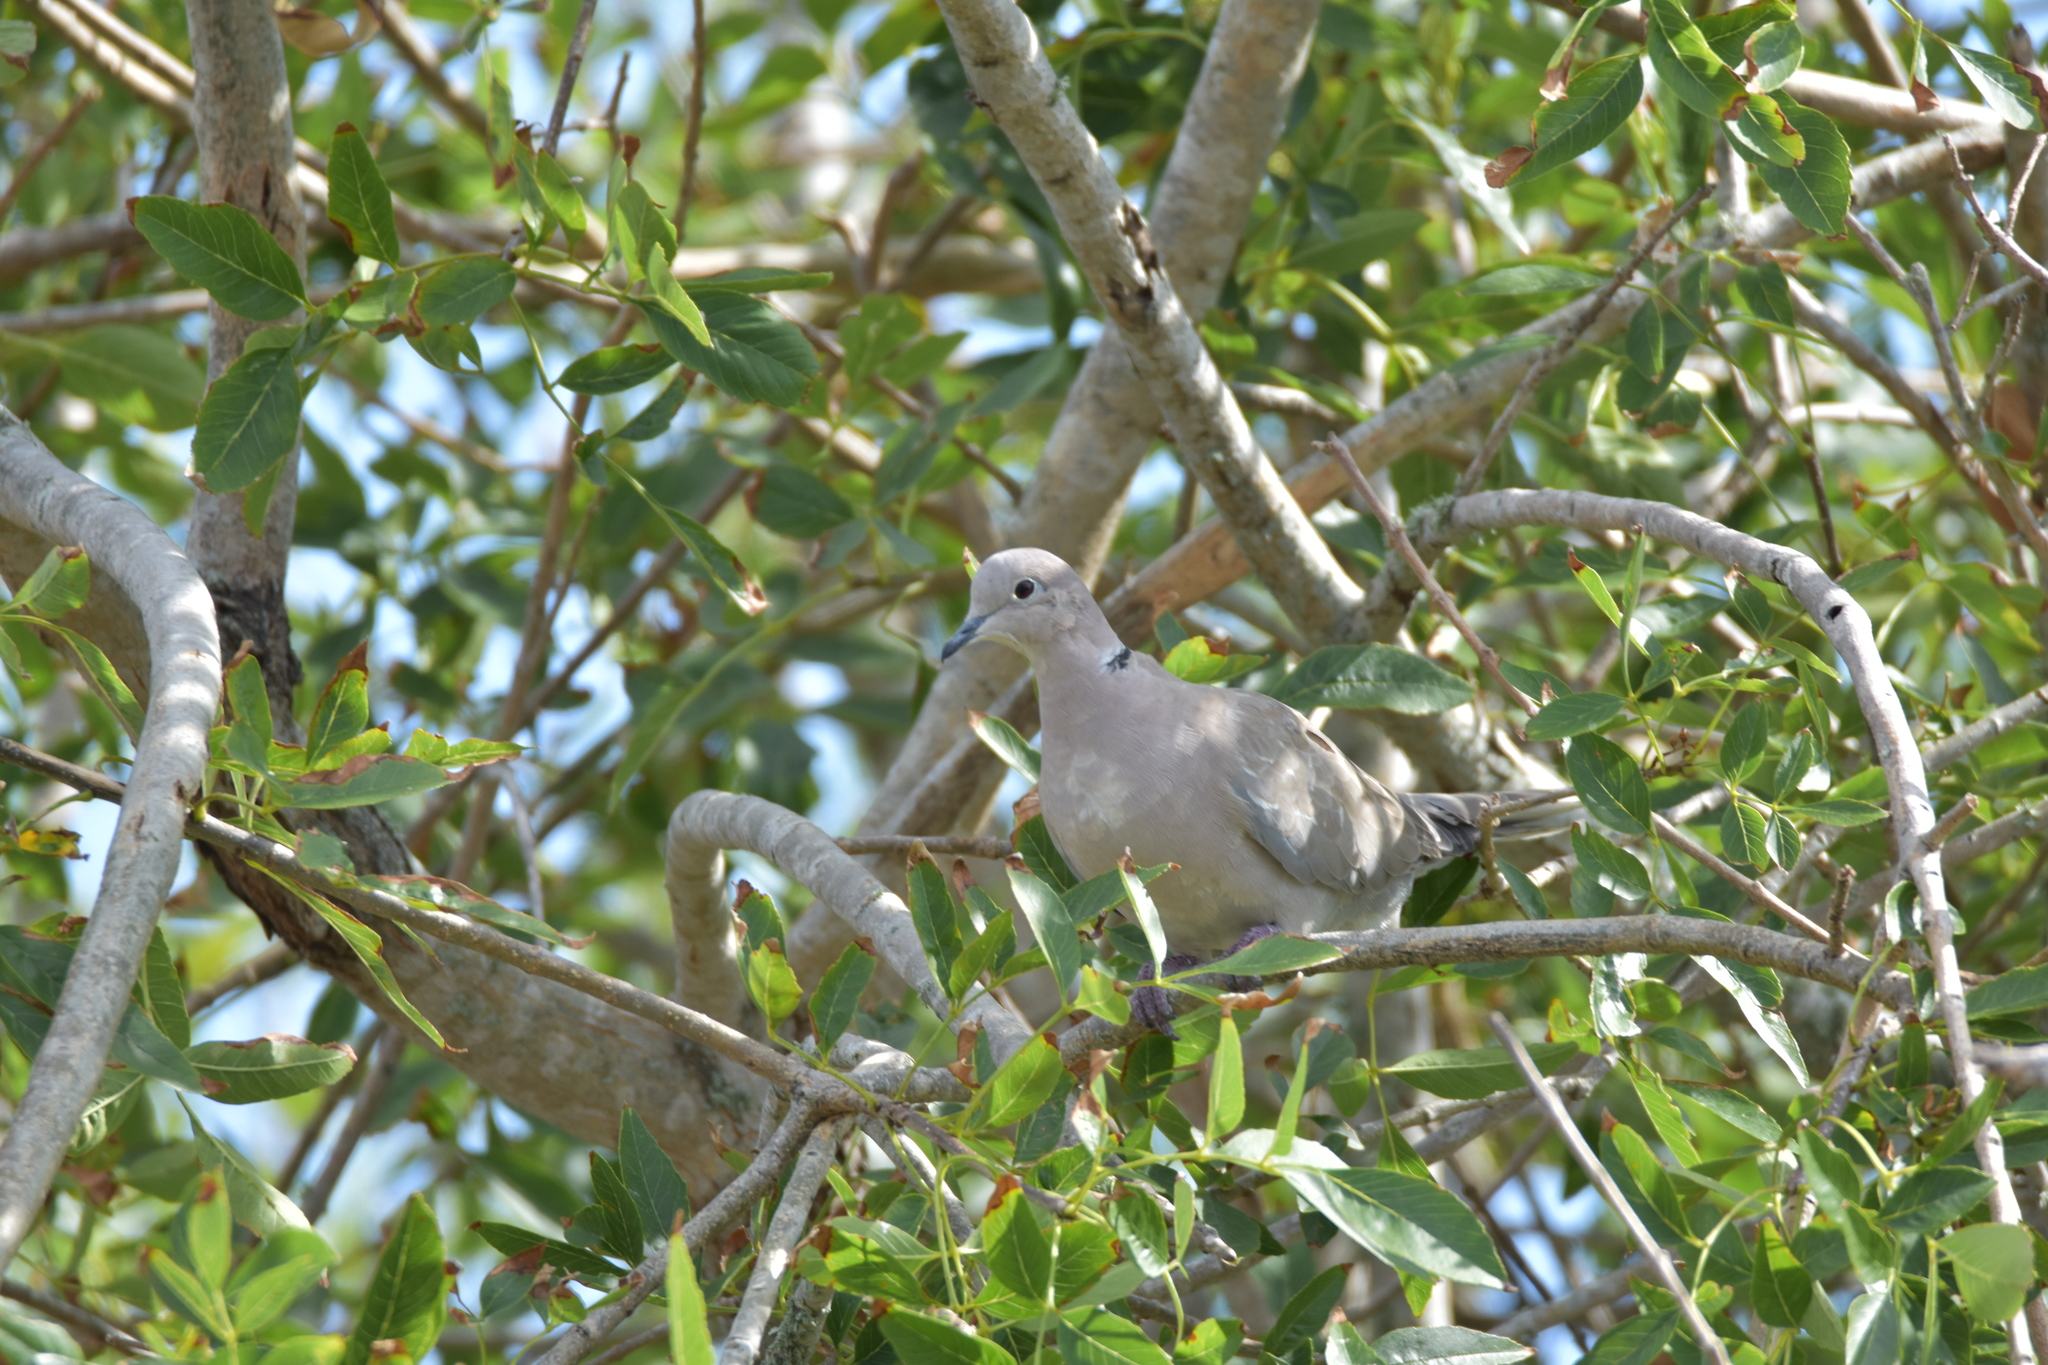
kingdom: Animalia
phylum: Chordata
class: Aves
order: Columbiformes
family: Columbidae
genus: Streptopelia
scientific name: Streptopelia decaocto
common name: Eurasian collared dove
